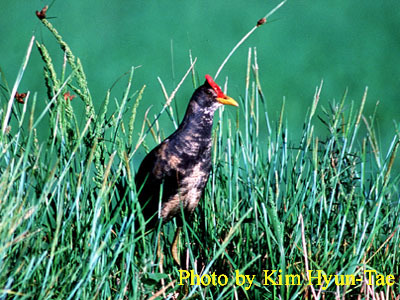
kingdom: Animalia
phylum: Chordata
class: Aves
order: Gruiformes
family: Rallidae
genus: Gallicrex
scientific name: Gallicrex cinerea
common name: Watercock
